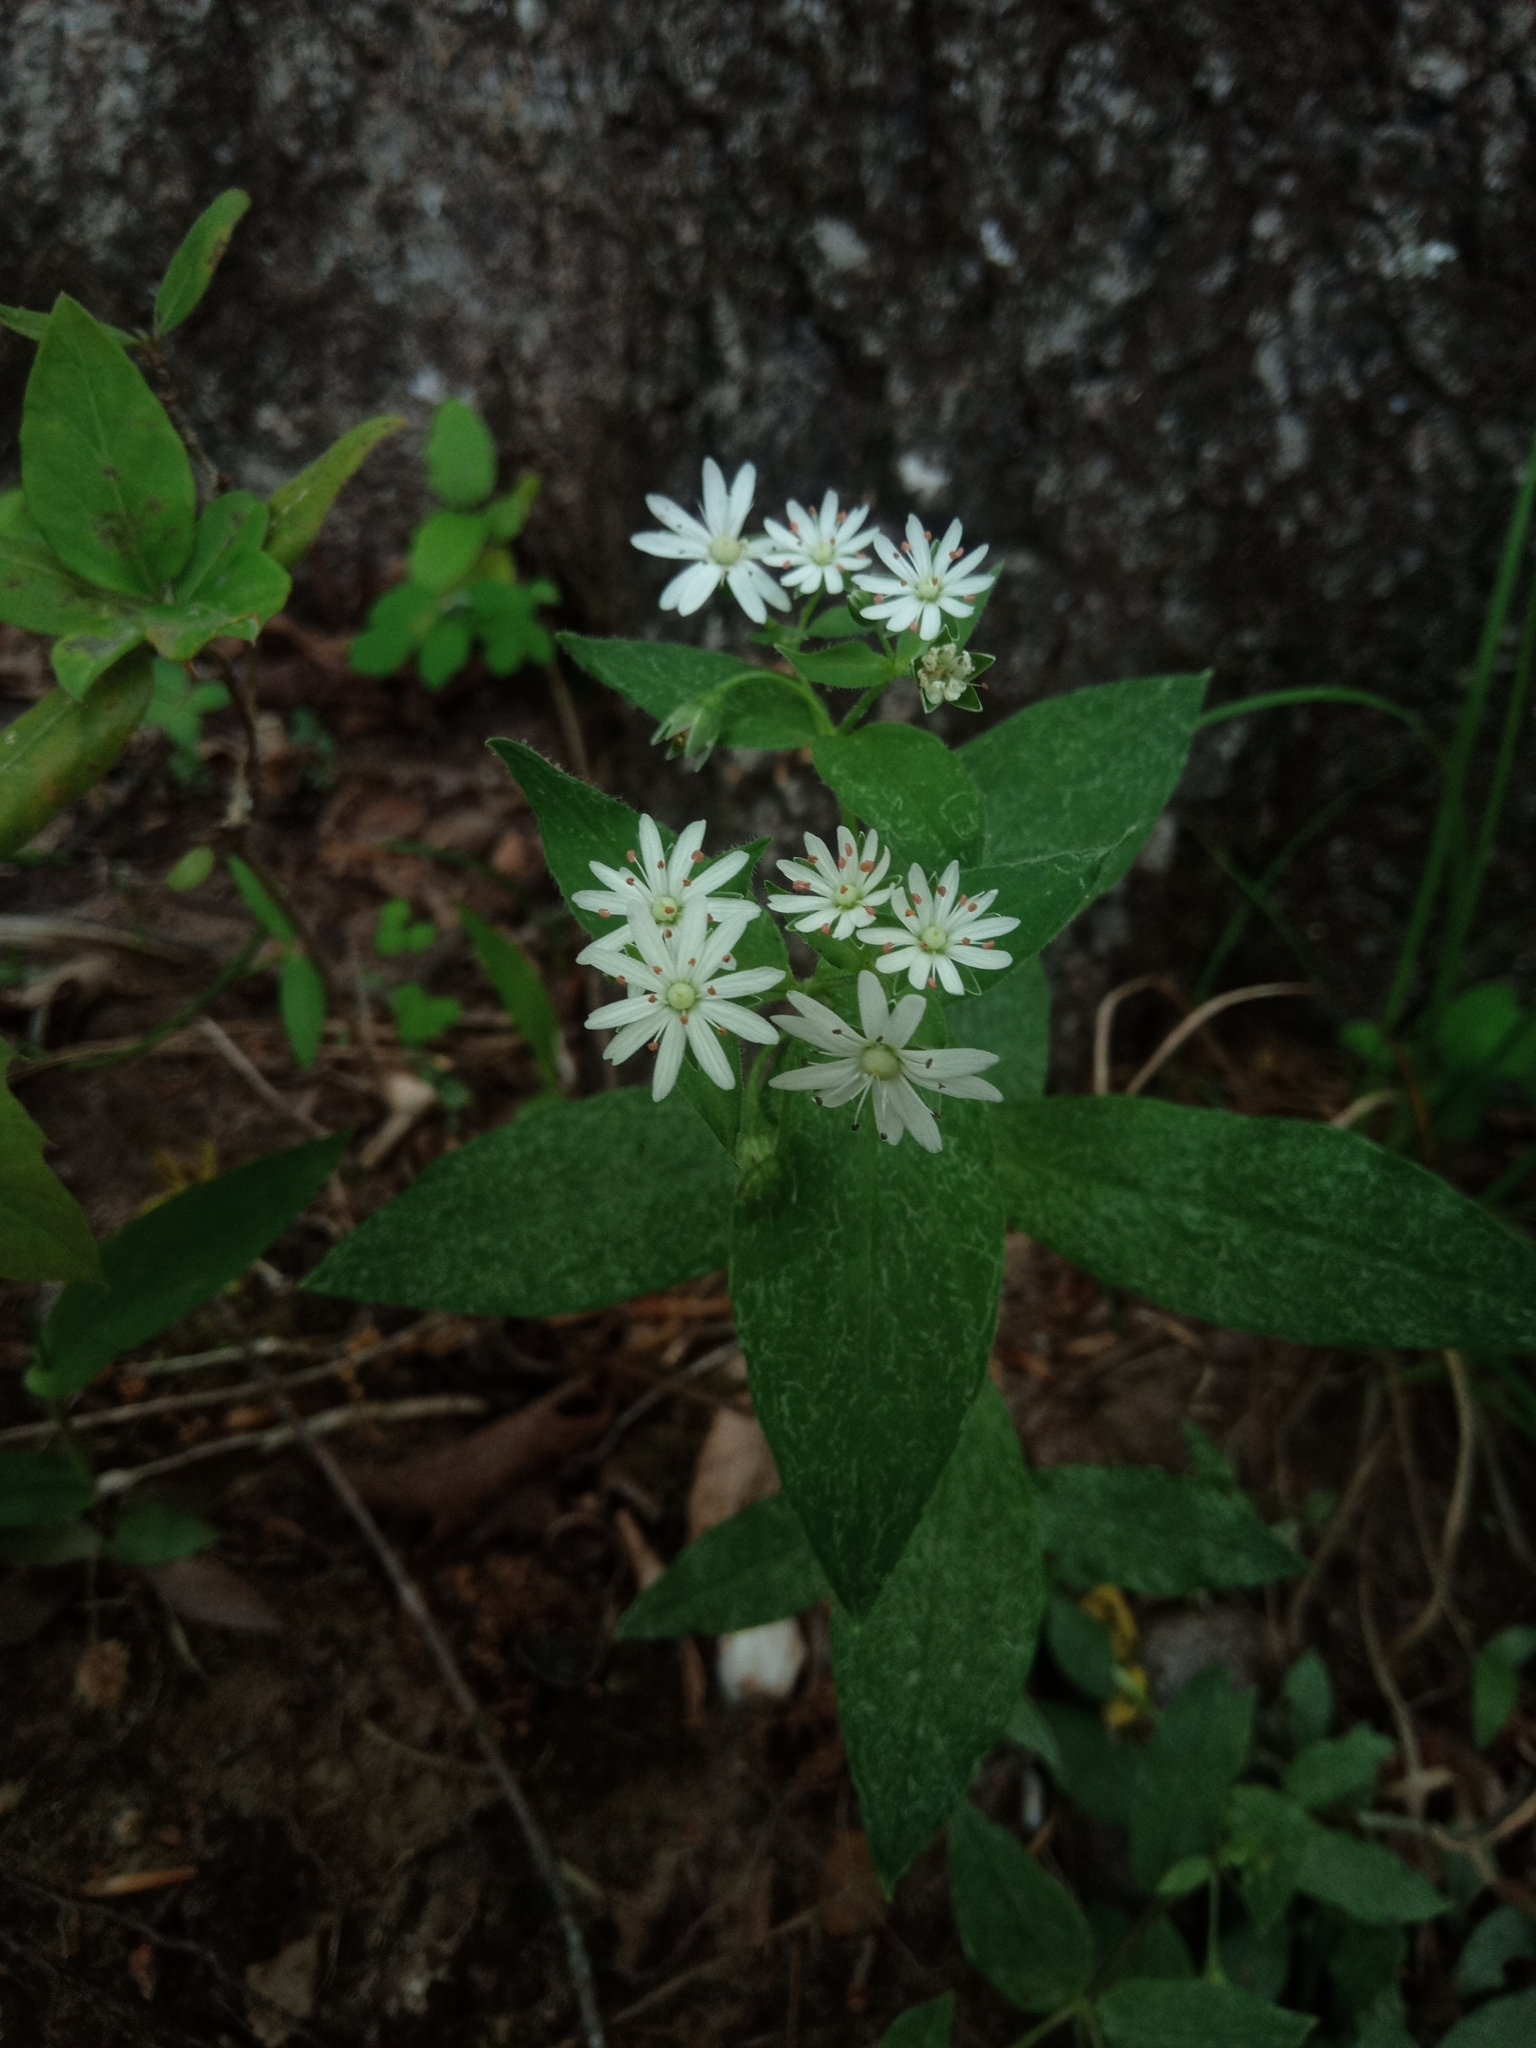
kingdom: Plantae
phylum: Tracheophyta
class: Magnoliopsida
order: Caryophyllales
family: Caryophyllaceae
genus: Stellaria
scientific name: Stellaria pubera
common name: Star chickweed
